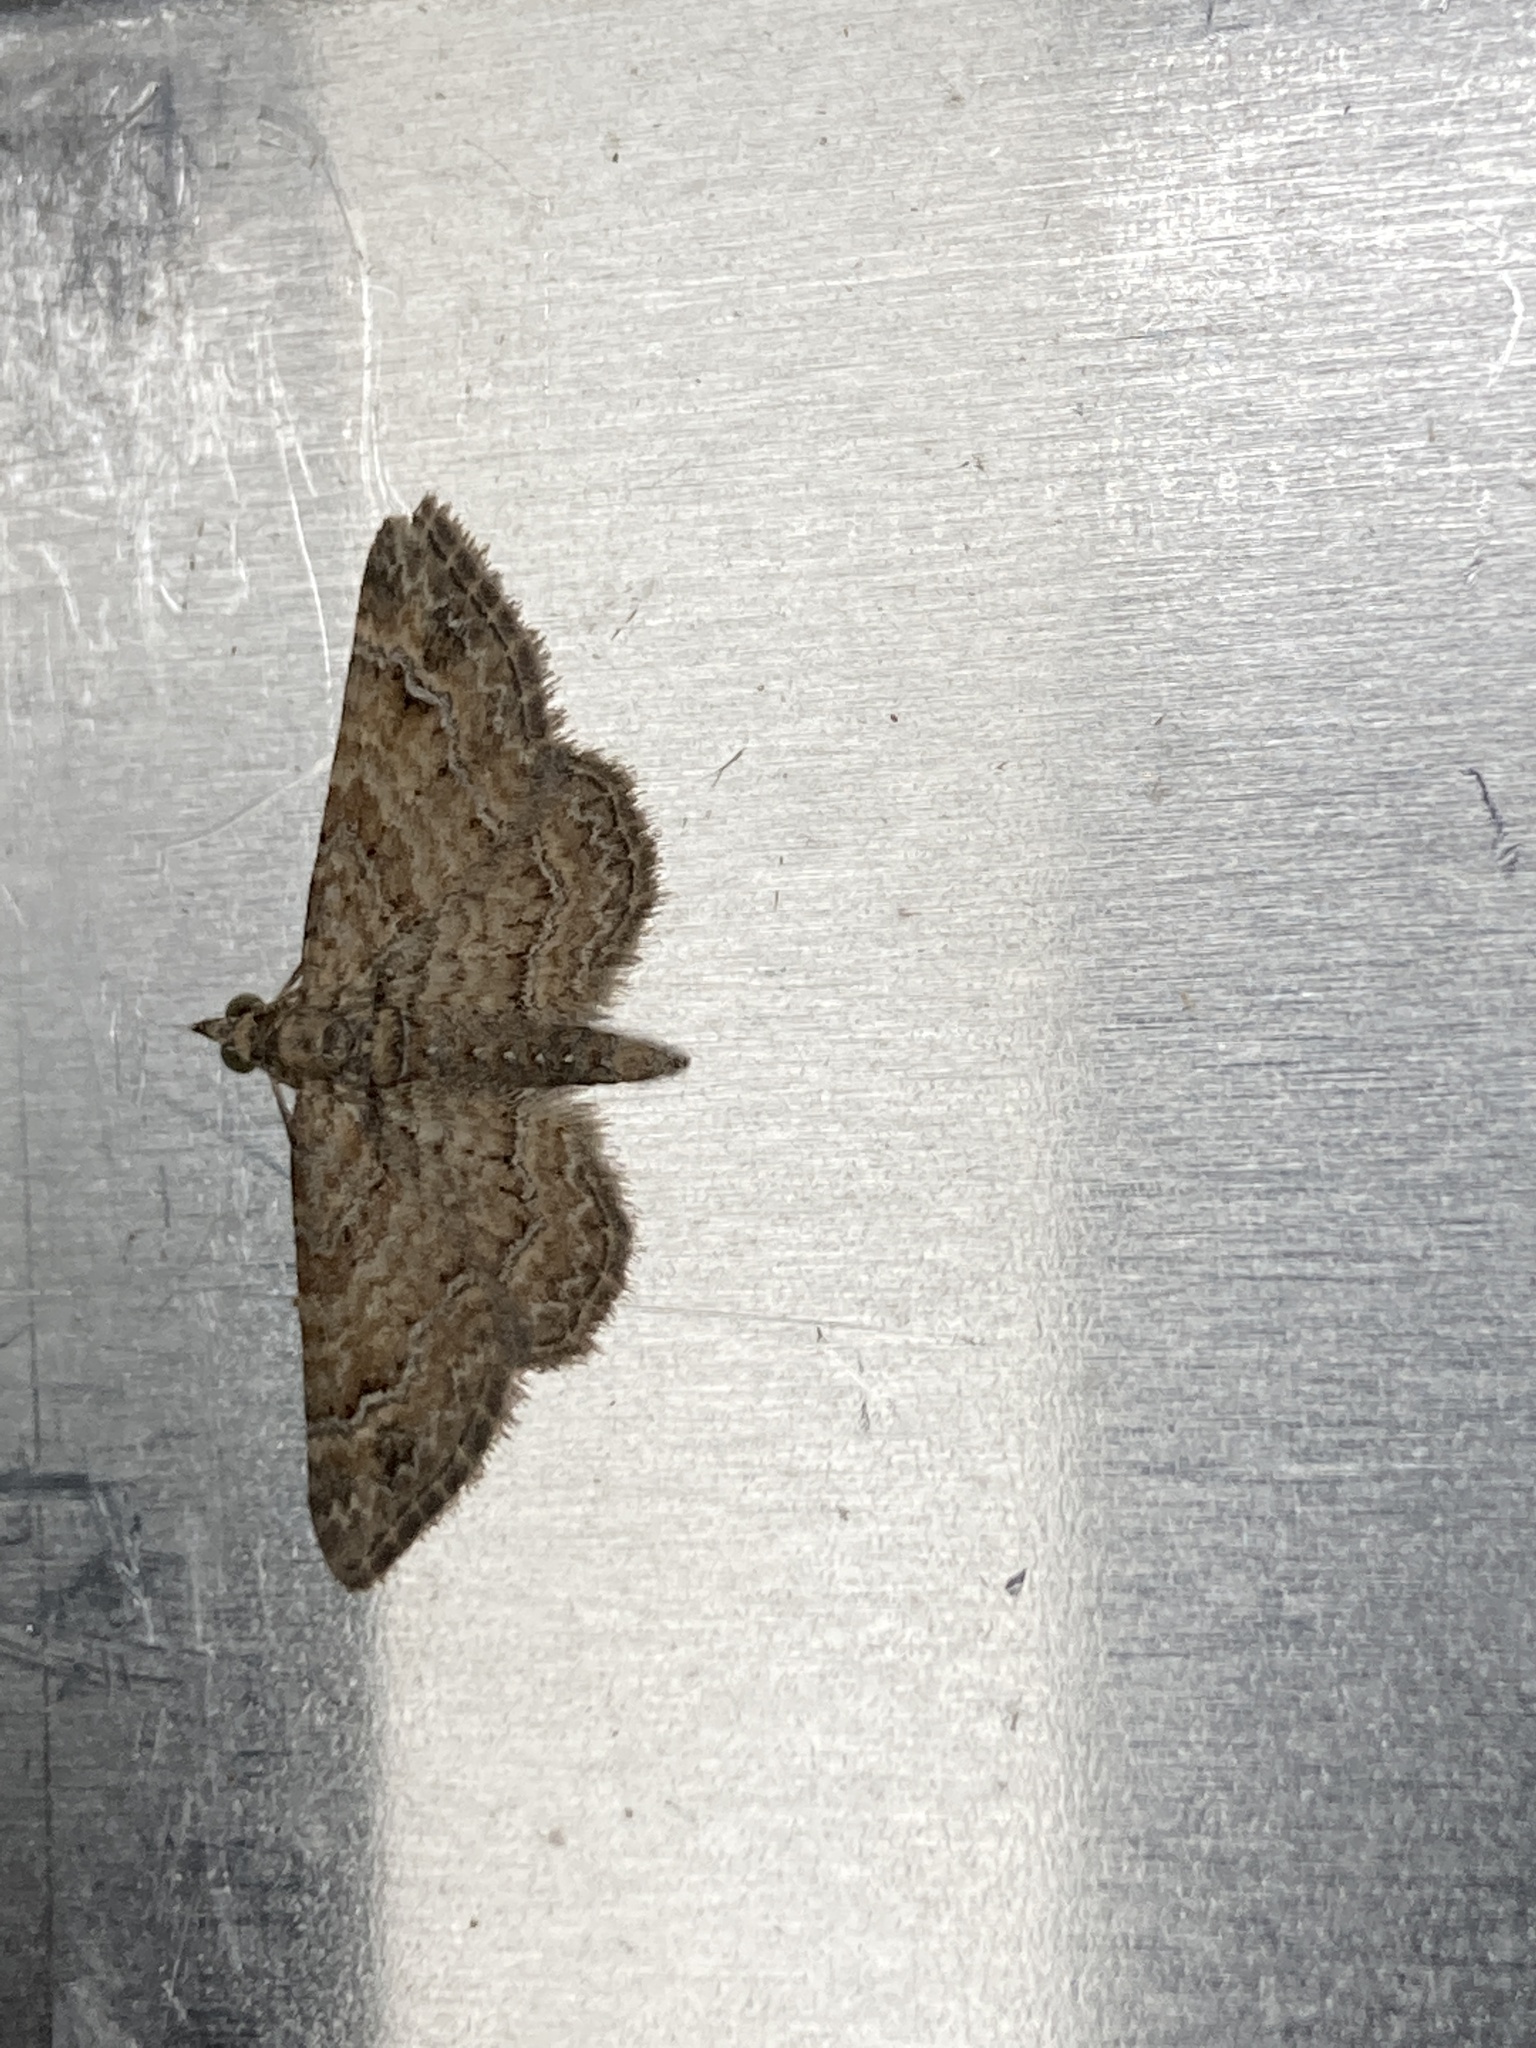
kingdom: Animalia
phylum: Arthropoda
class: Insecta
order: Lepidoptera
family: Geometridae
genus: Gymnoscelis
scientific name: Gymnoscelis rufifasciata
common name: Double-striped pug
